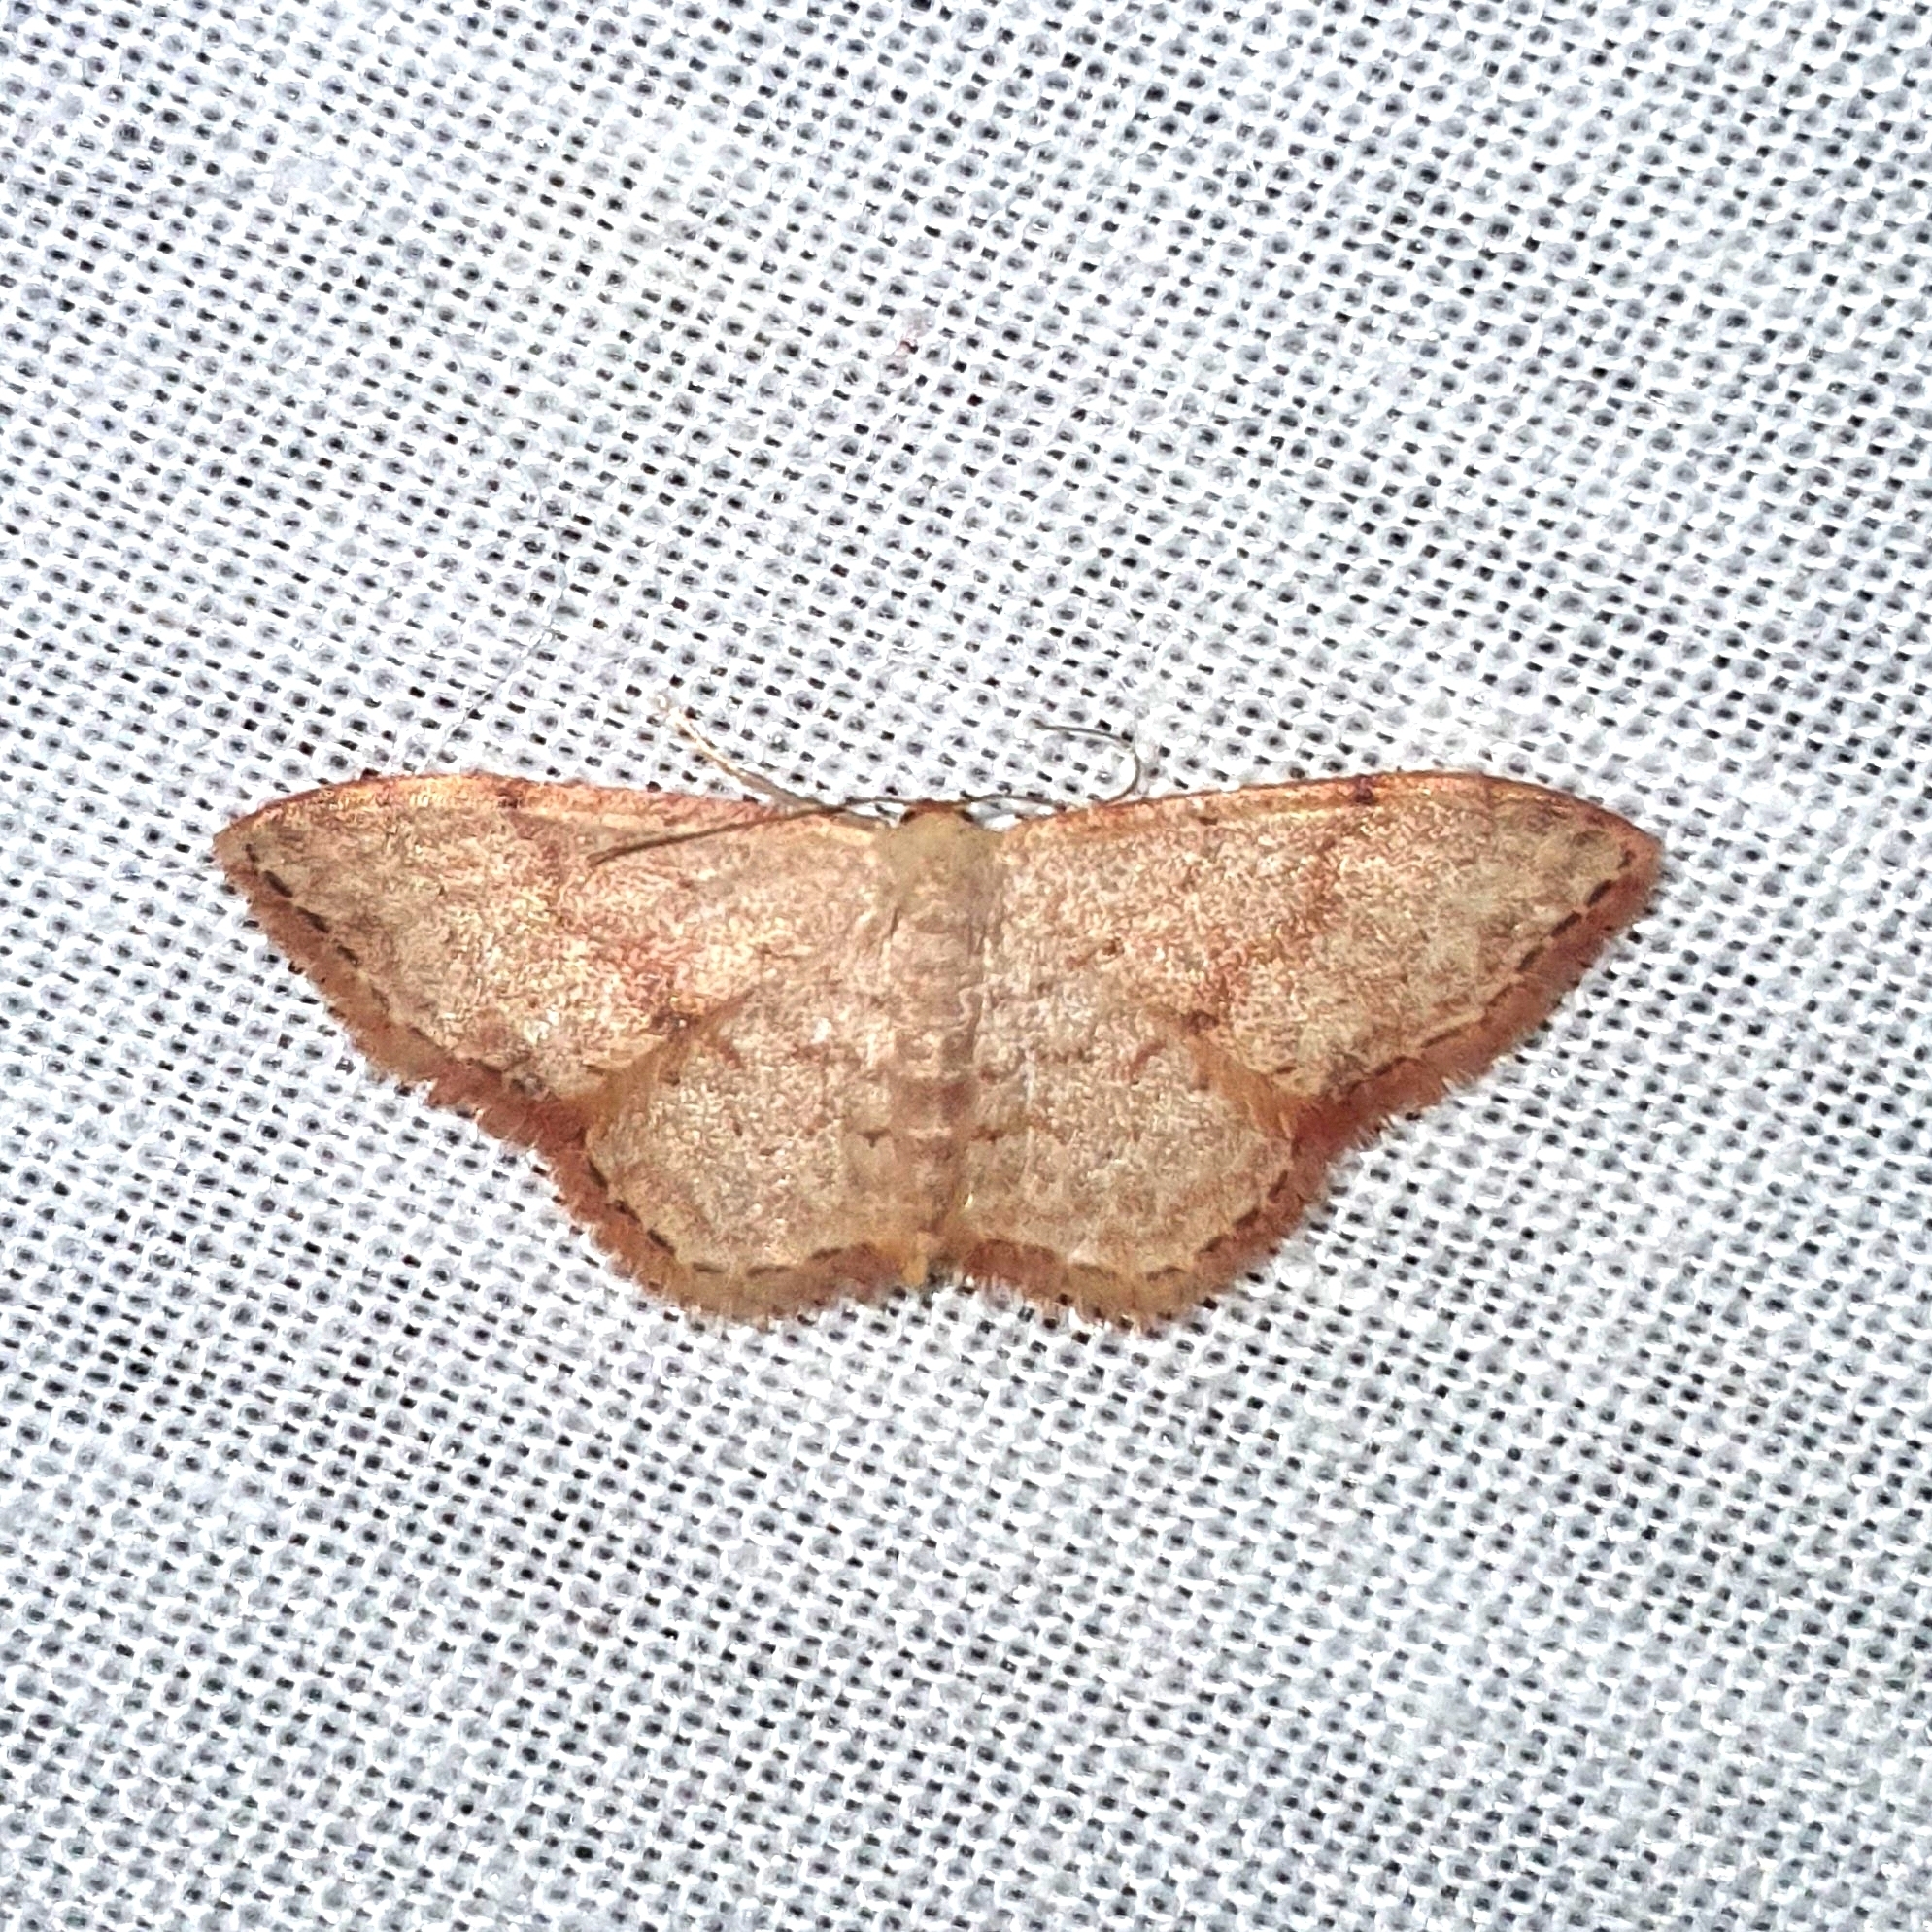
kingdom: Animalia
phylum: Arthropoda
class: Insecta
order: Lepidoptera
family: Geometridae
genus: Idaea
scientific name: Idaea halmaea
